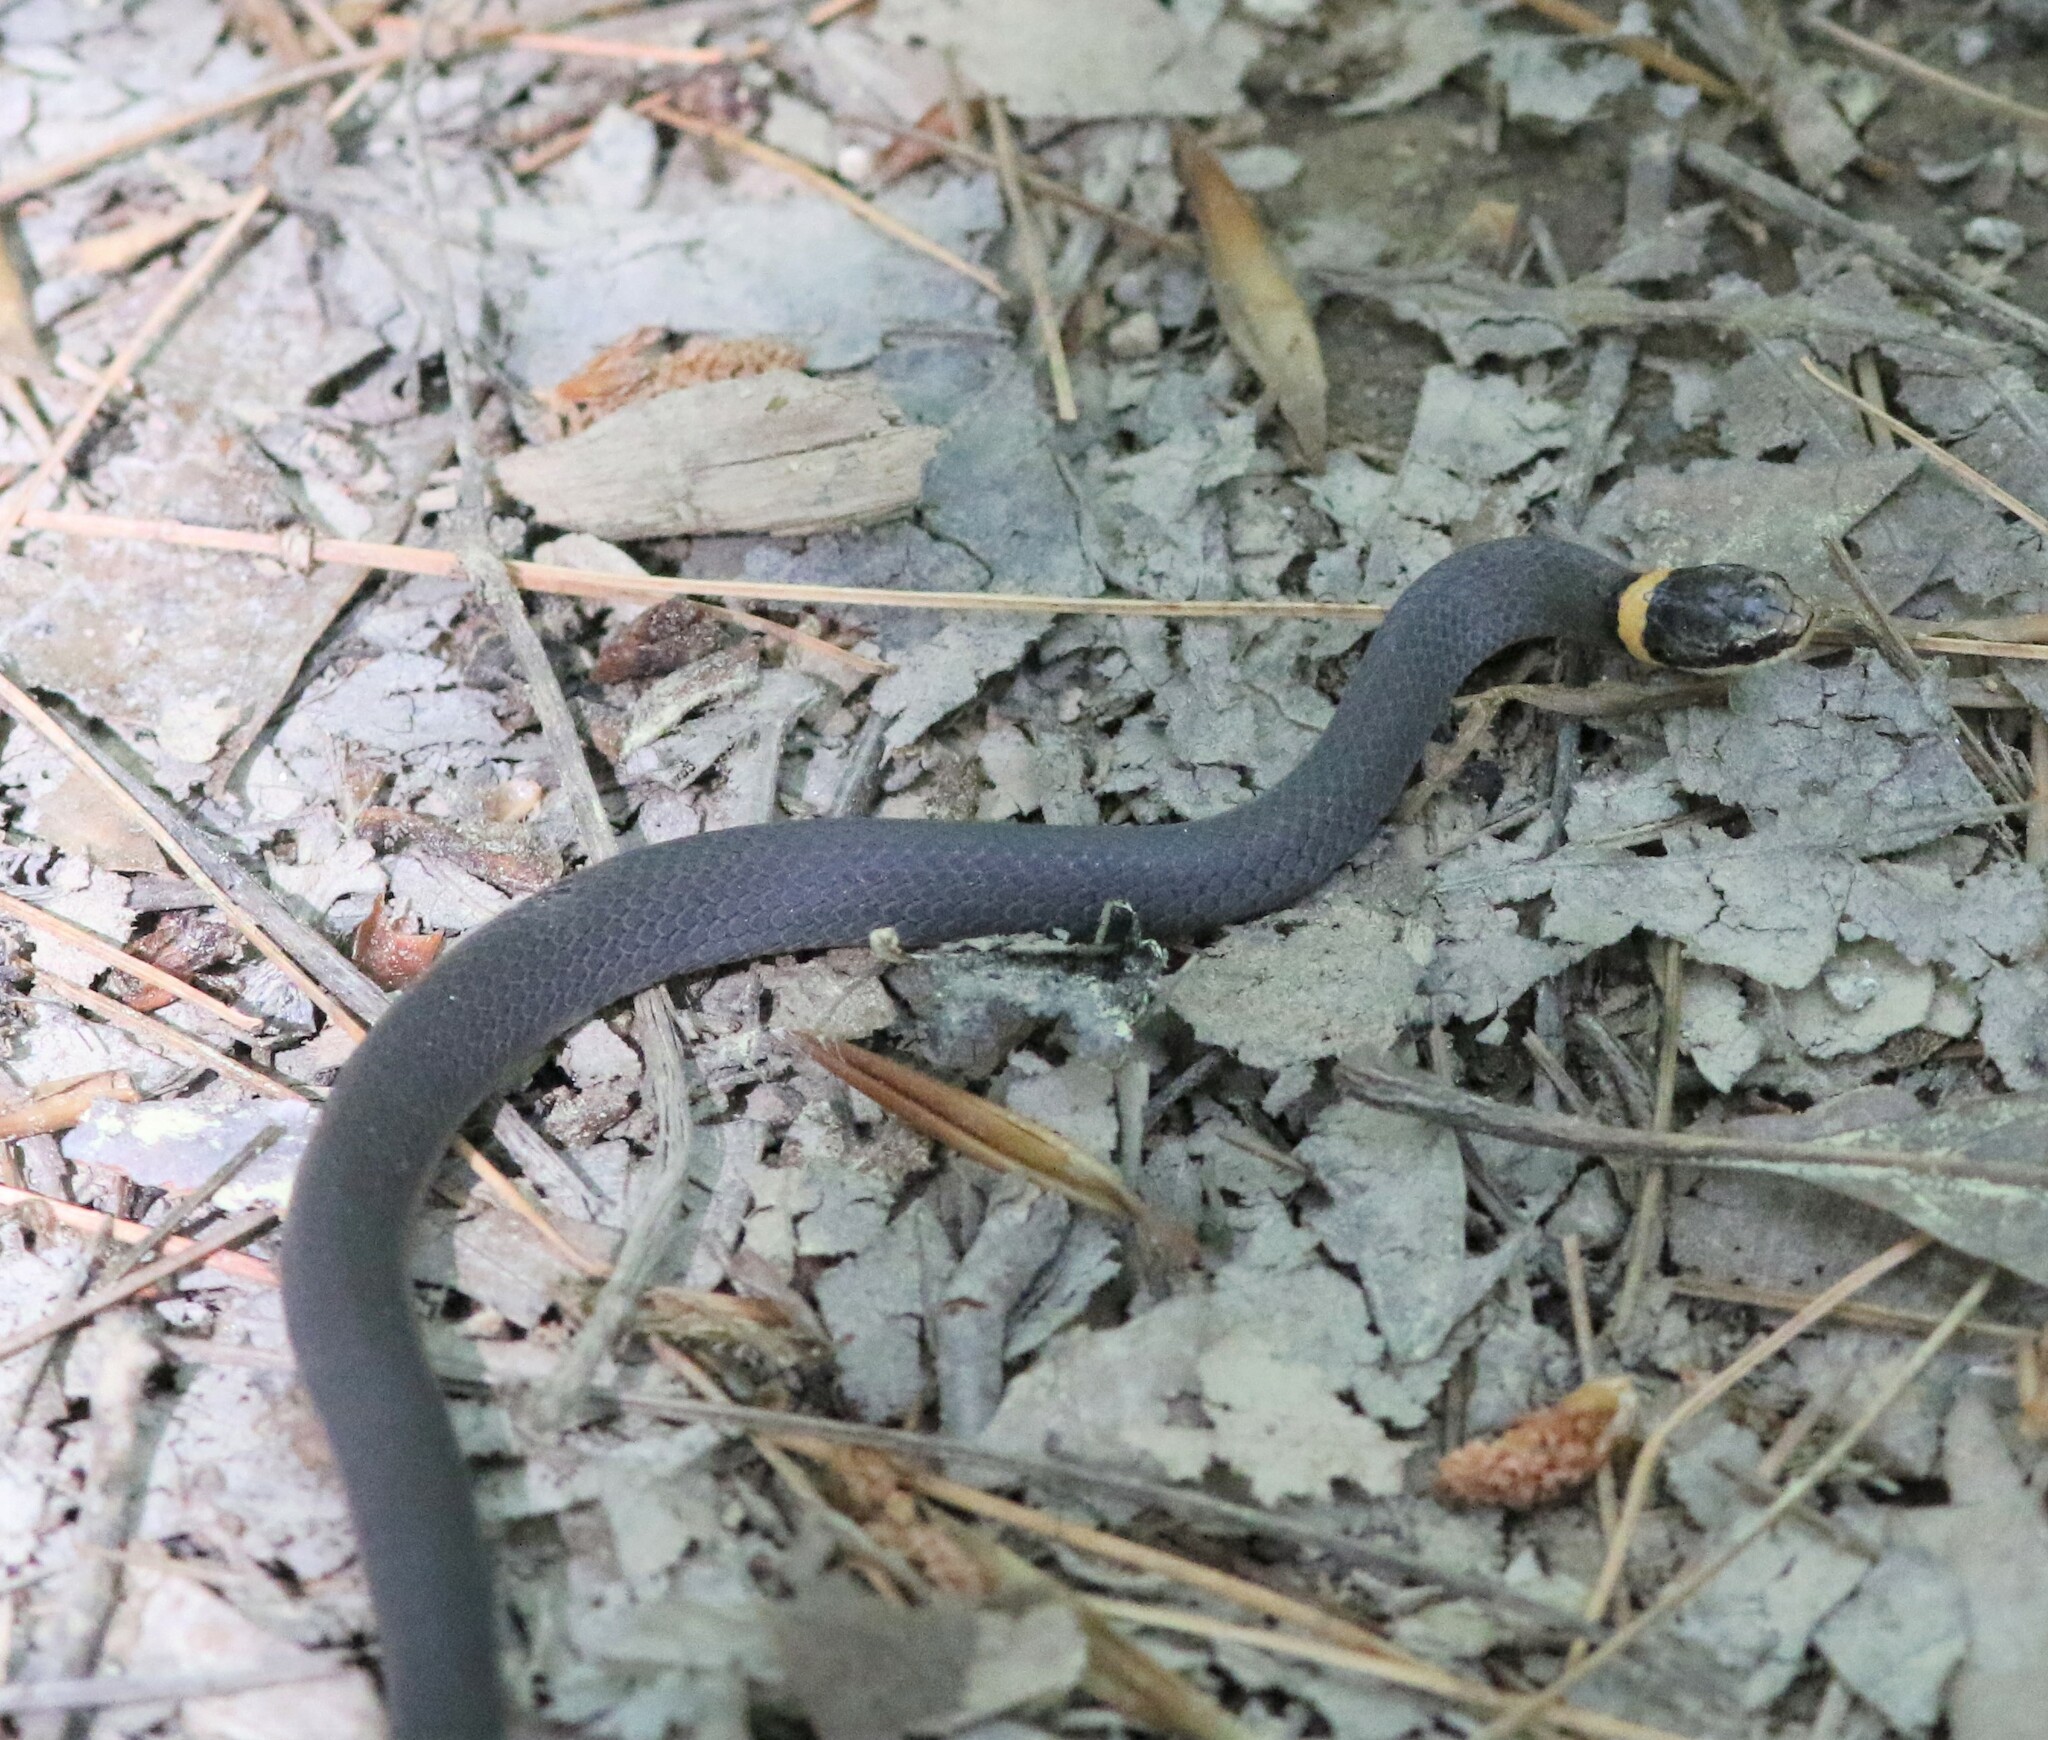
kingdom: Animalia
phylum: Chordata
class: Squamata
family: Colubridae
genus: Diadophis
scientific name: Diadophis punctatus
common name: Ringneck snake
